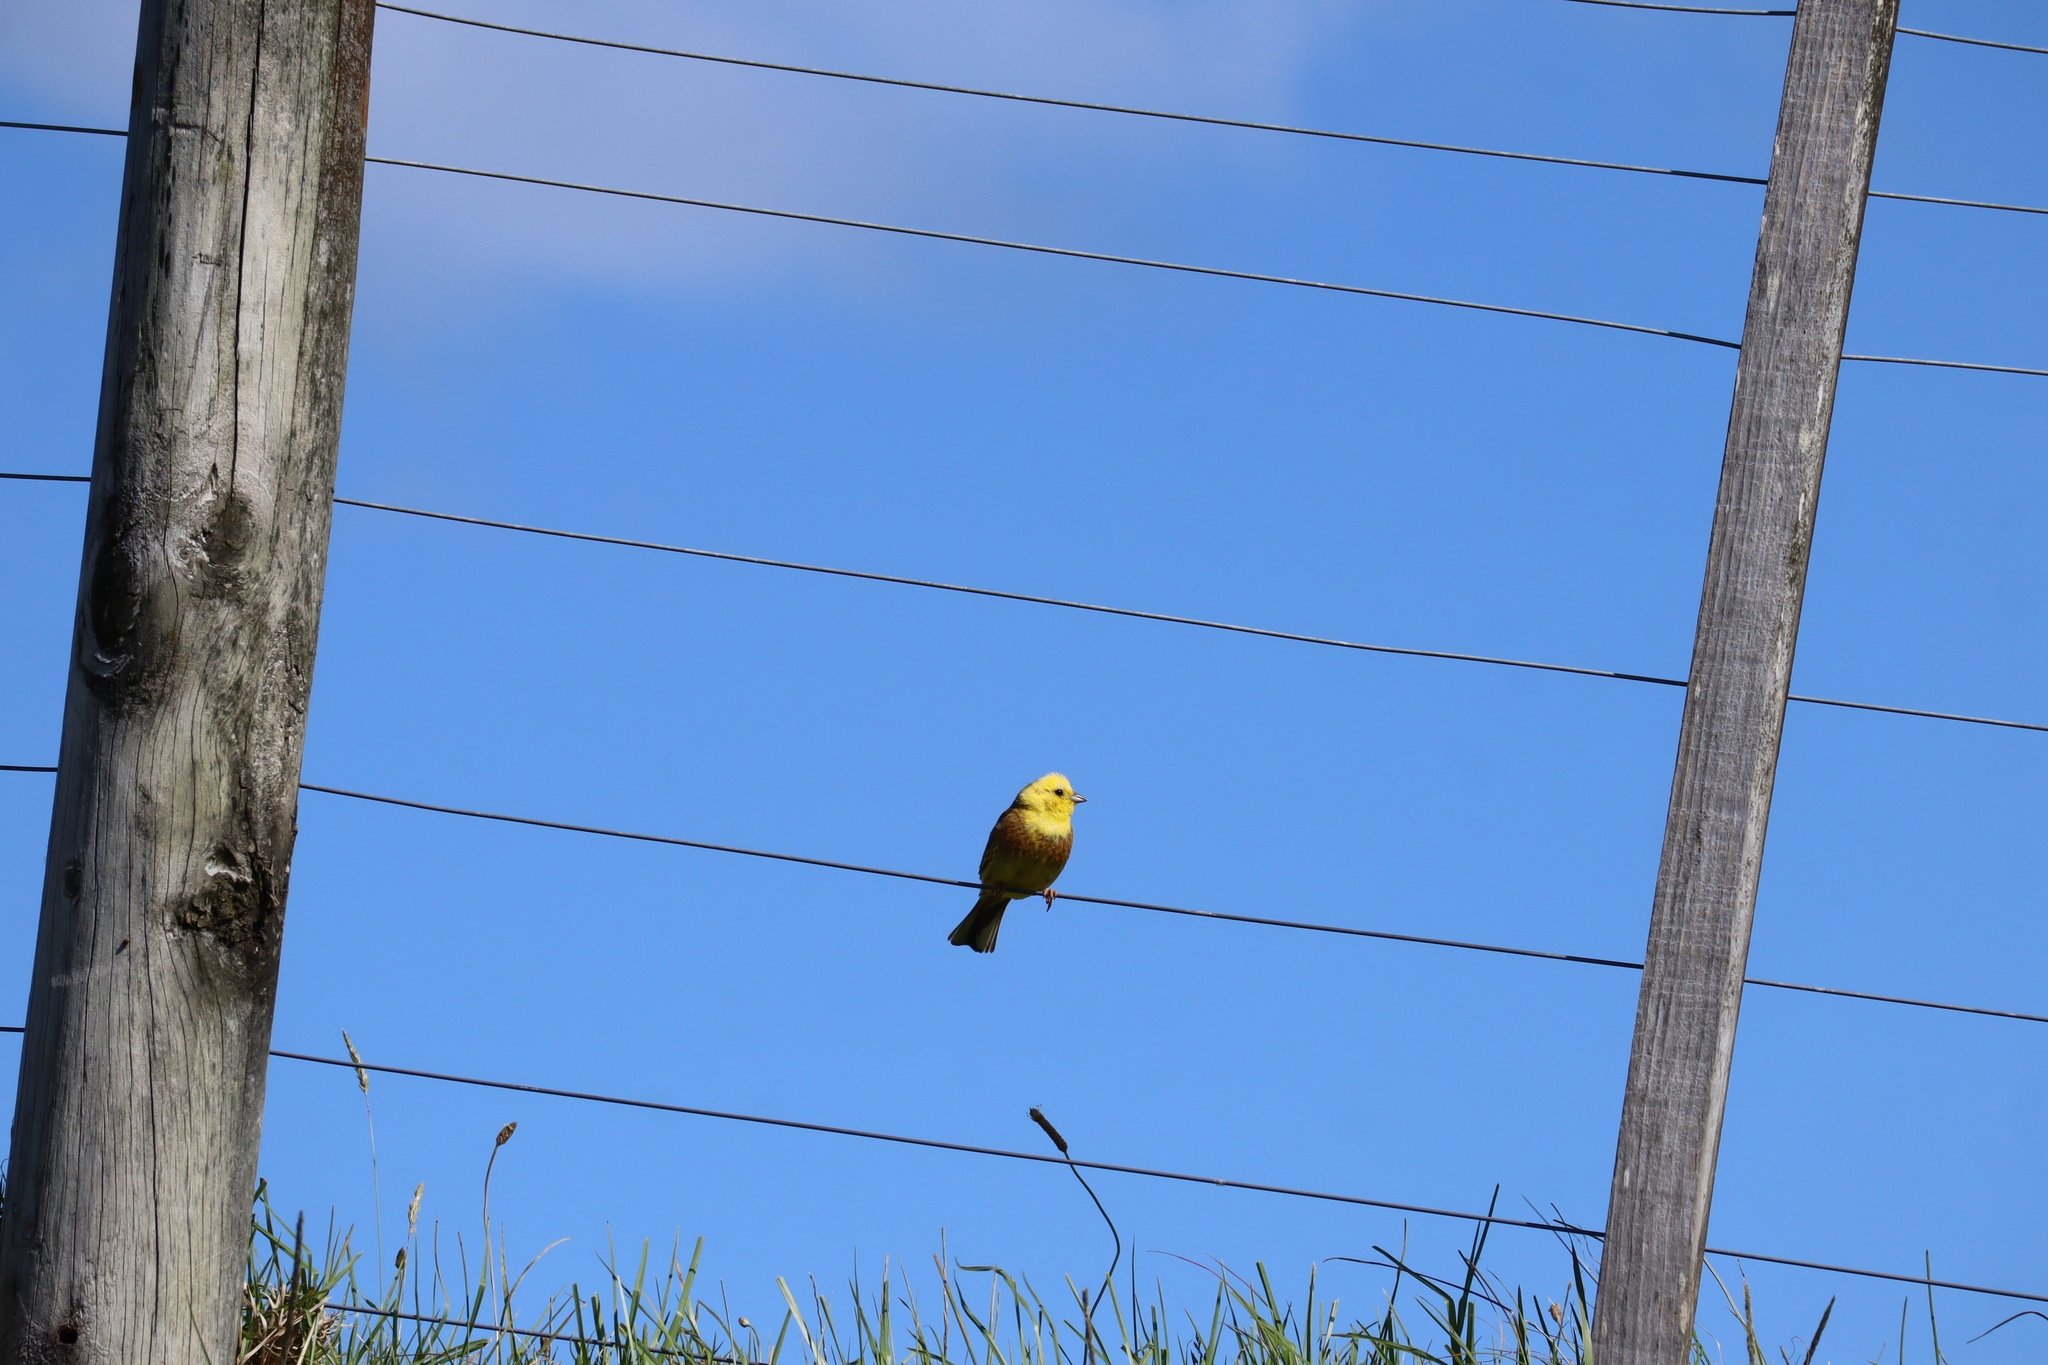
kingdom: Animalia
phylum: Chordata
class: Aves
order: Passeriformes
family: Emberizidae
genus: Emberiza
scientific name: Emberiza citrinella
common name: Yellowhammer
